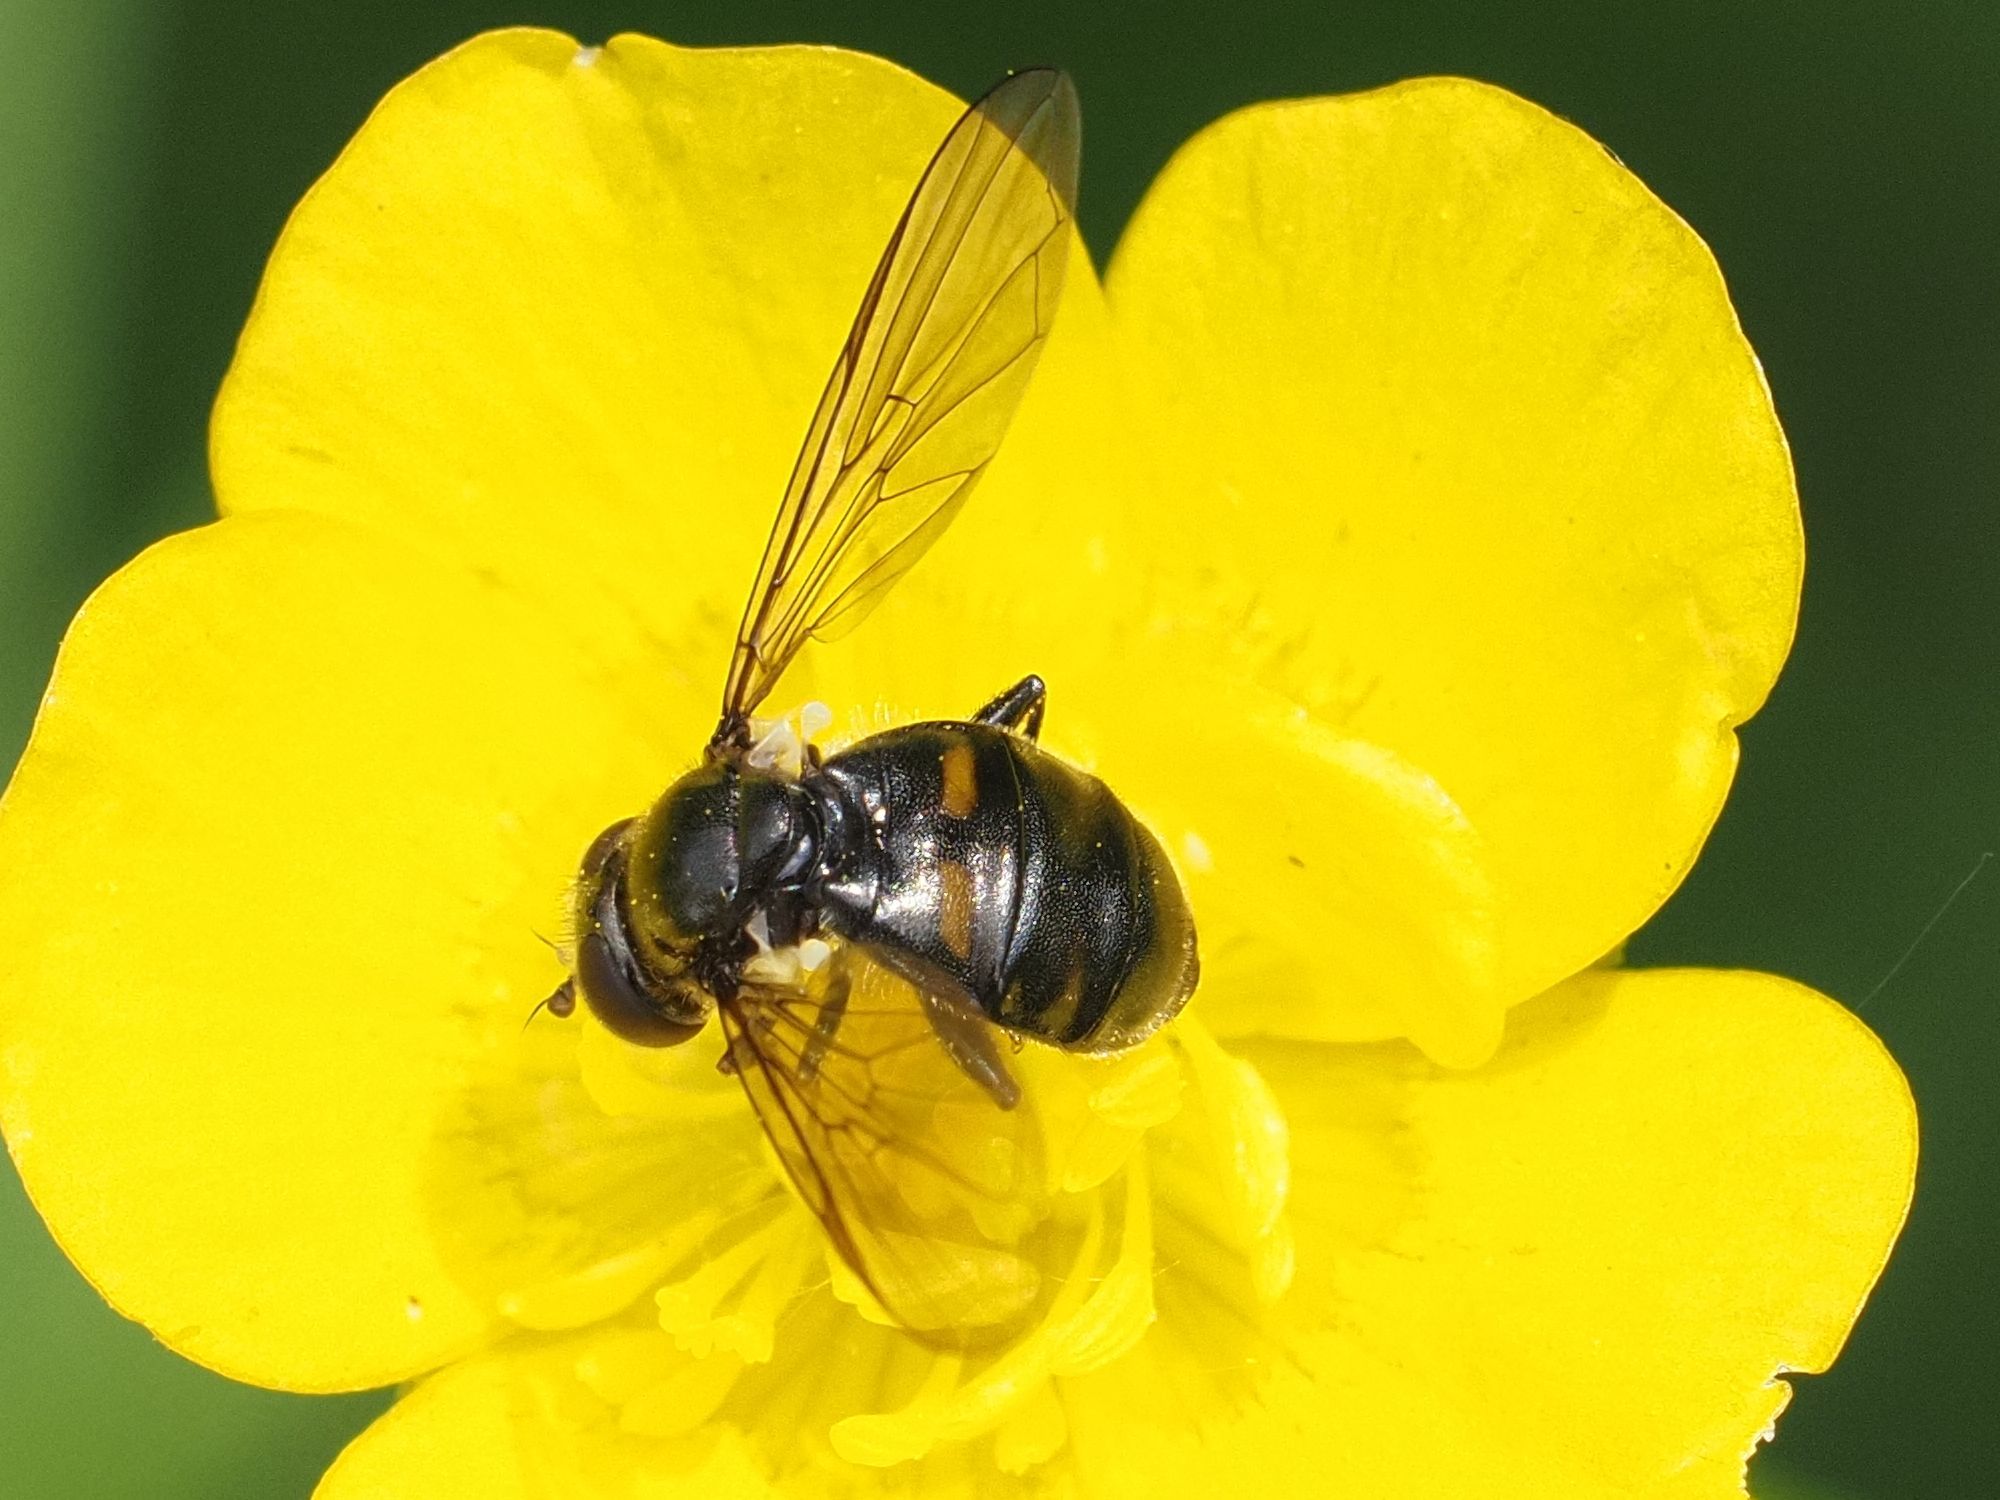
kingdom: Animalia
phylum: Arthropoda
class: Insecta
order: Diptera
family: Syrphidae
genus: Pipiza
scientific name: Pipiza quadrimaculata
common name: Four-spotted pipiza
